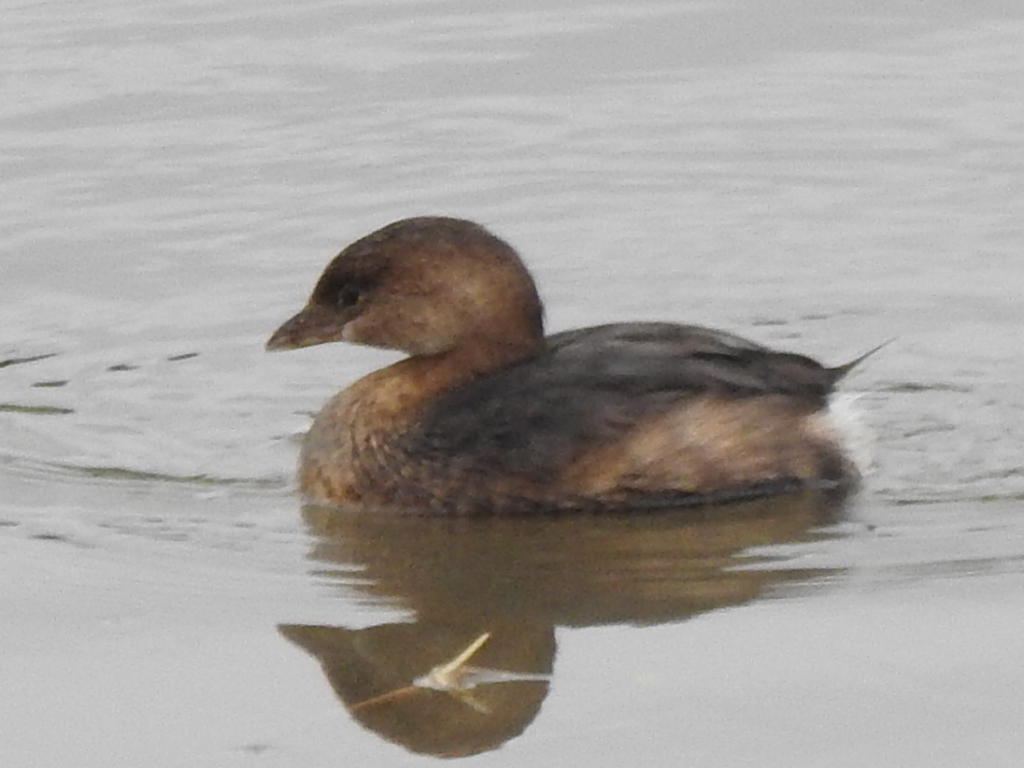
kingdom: Animalia
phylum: Chordata
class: Aves
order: Podicipediformes
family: Podicipedidae
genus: Podilymbus
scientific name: Podilymbus podiceps
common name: Pied-billed grebe
